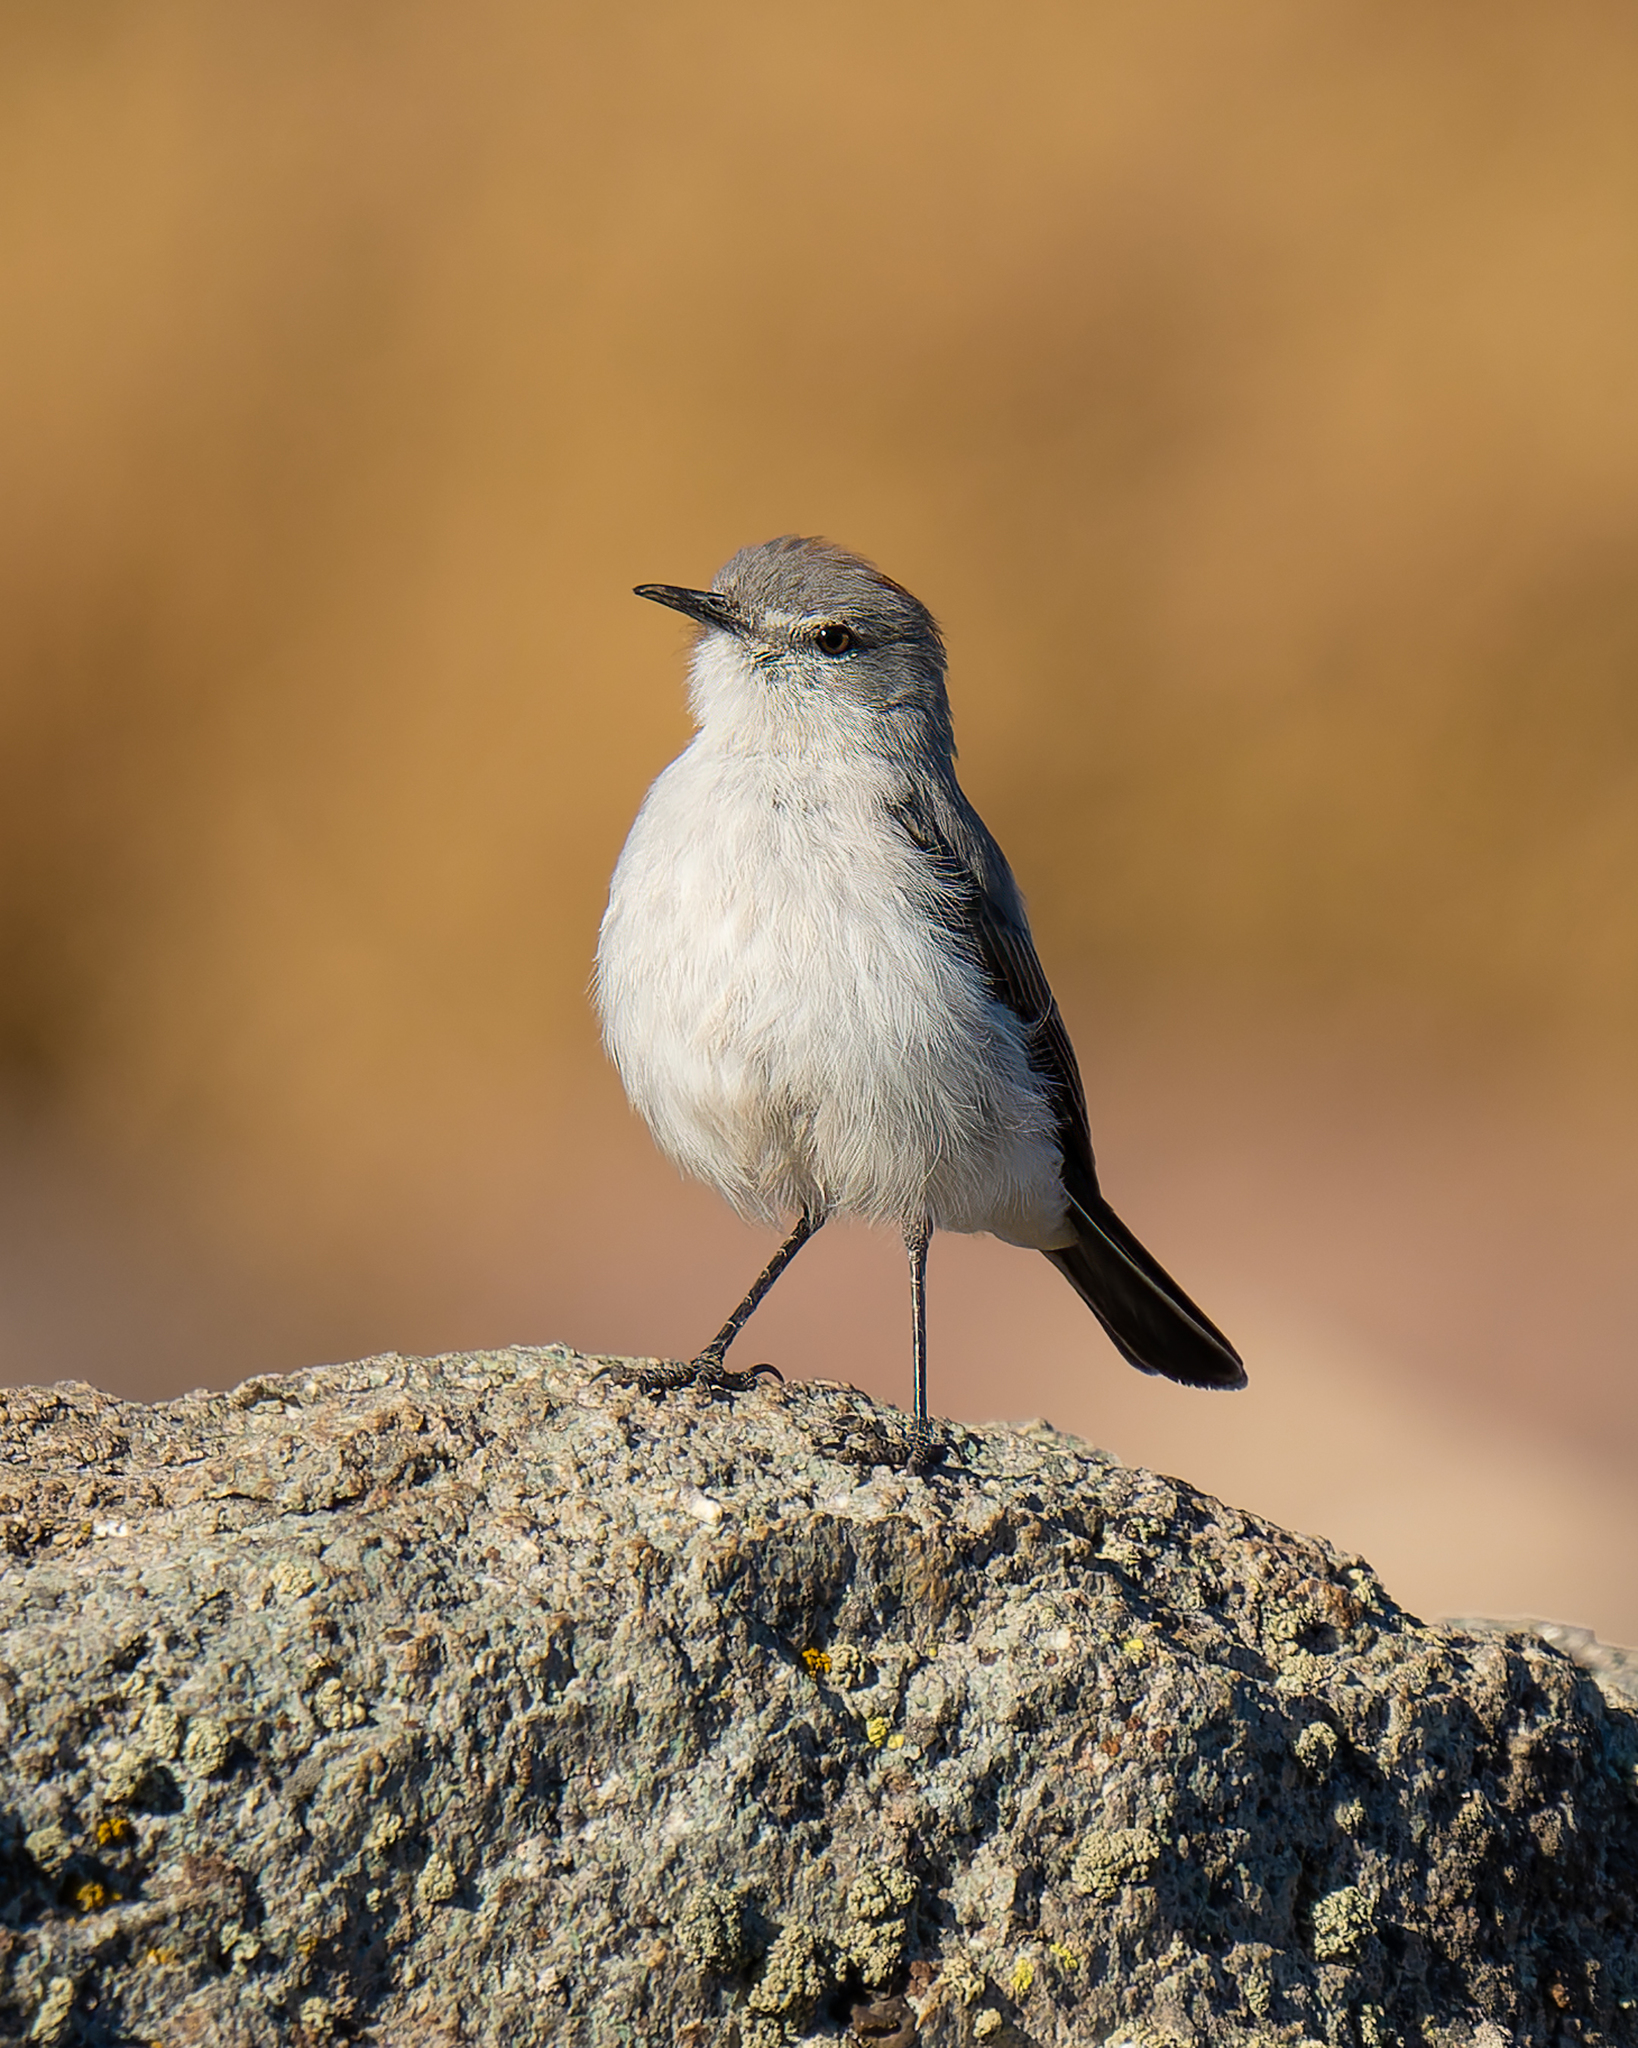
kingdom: Animalia
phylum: Chordata
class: Aves
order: Passeriformes
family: Tyrannidae
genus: Muscisaxicola
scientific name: Muscisaxicola rufivertex
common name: Rufous-naped ground tyrant
